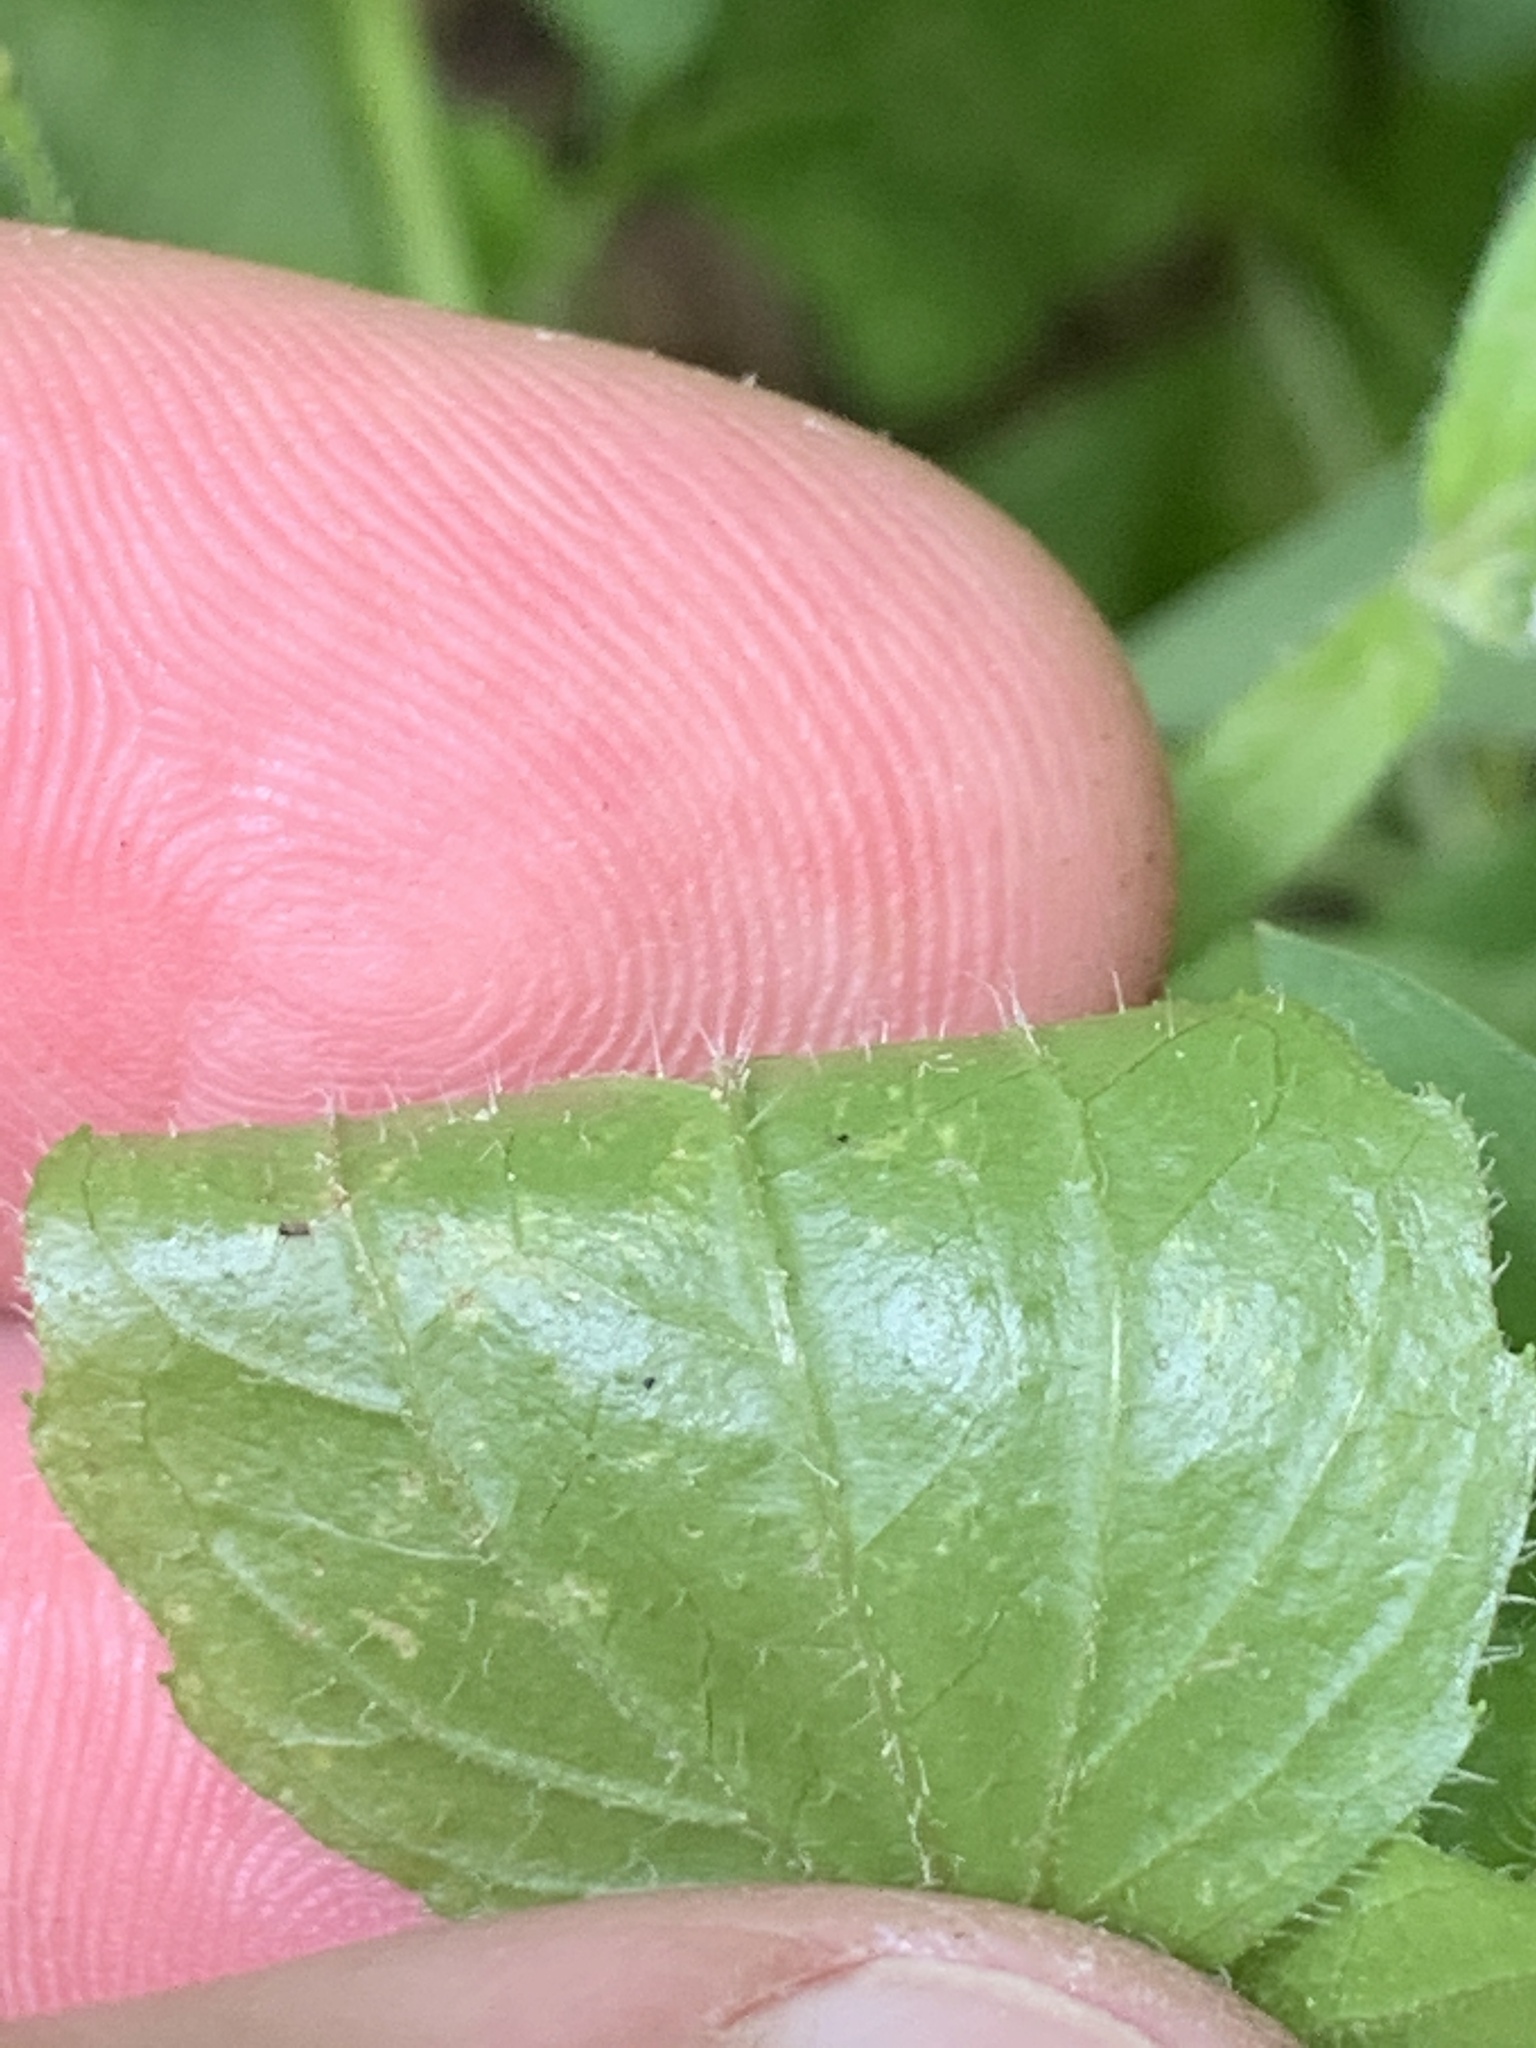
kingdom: Plantae
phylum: Tracheophyta
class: Magnoliopsida
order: Asterales
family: Asteraceae
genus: Galinsoga
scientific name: Galinsoga quadriradiata
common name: Shaggy soldier
